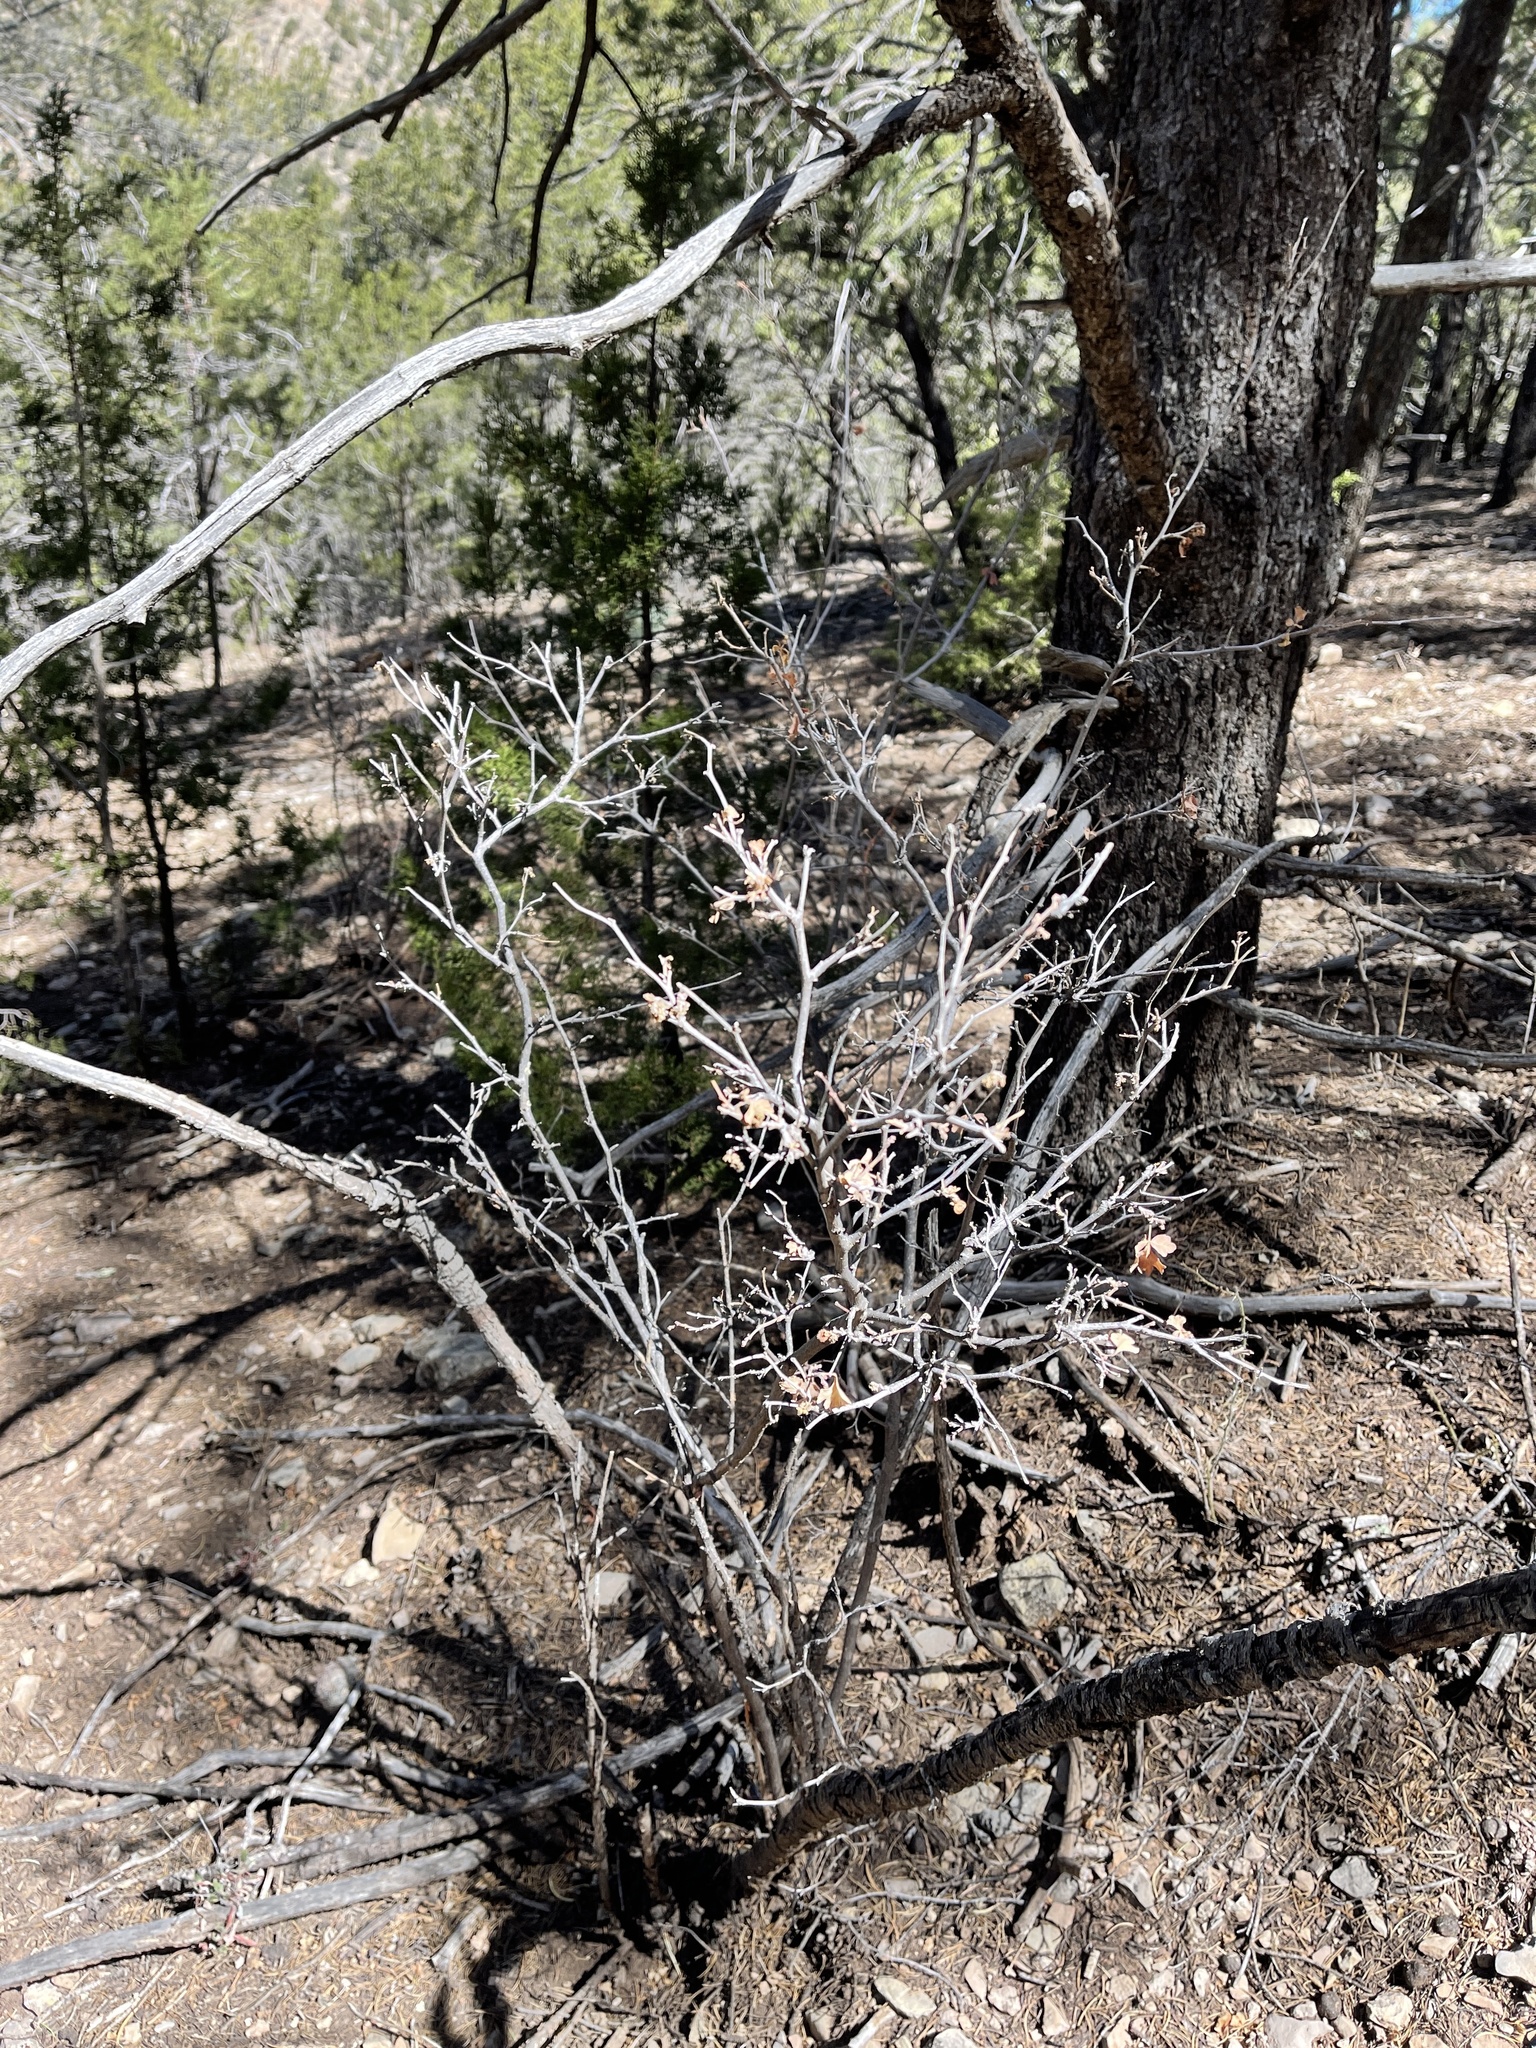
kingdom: Plantae
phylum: Tracheophyta
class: Magnoliopsida
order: Sapindales
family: Anacardiaceae
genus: Rhus
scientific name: Rhus aromatica
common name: Aromatic sumac
